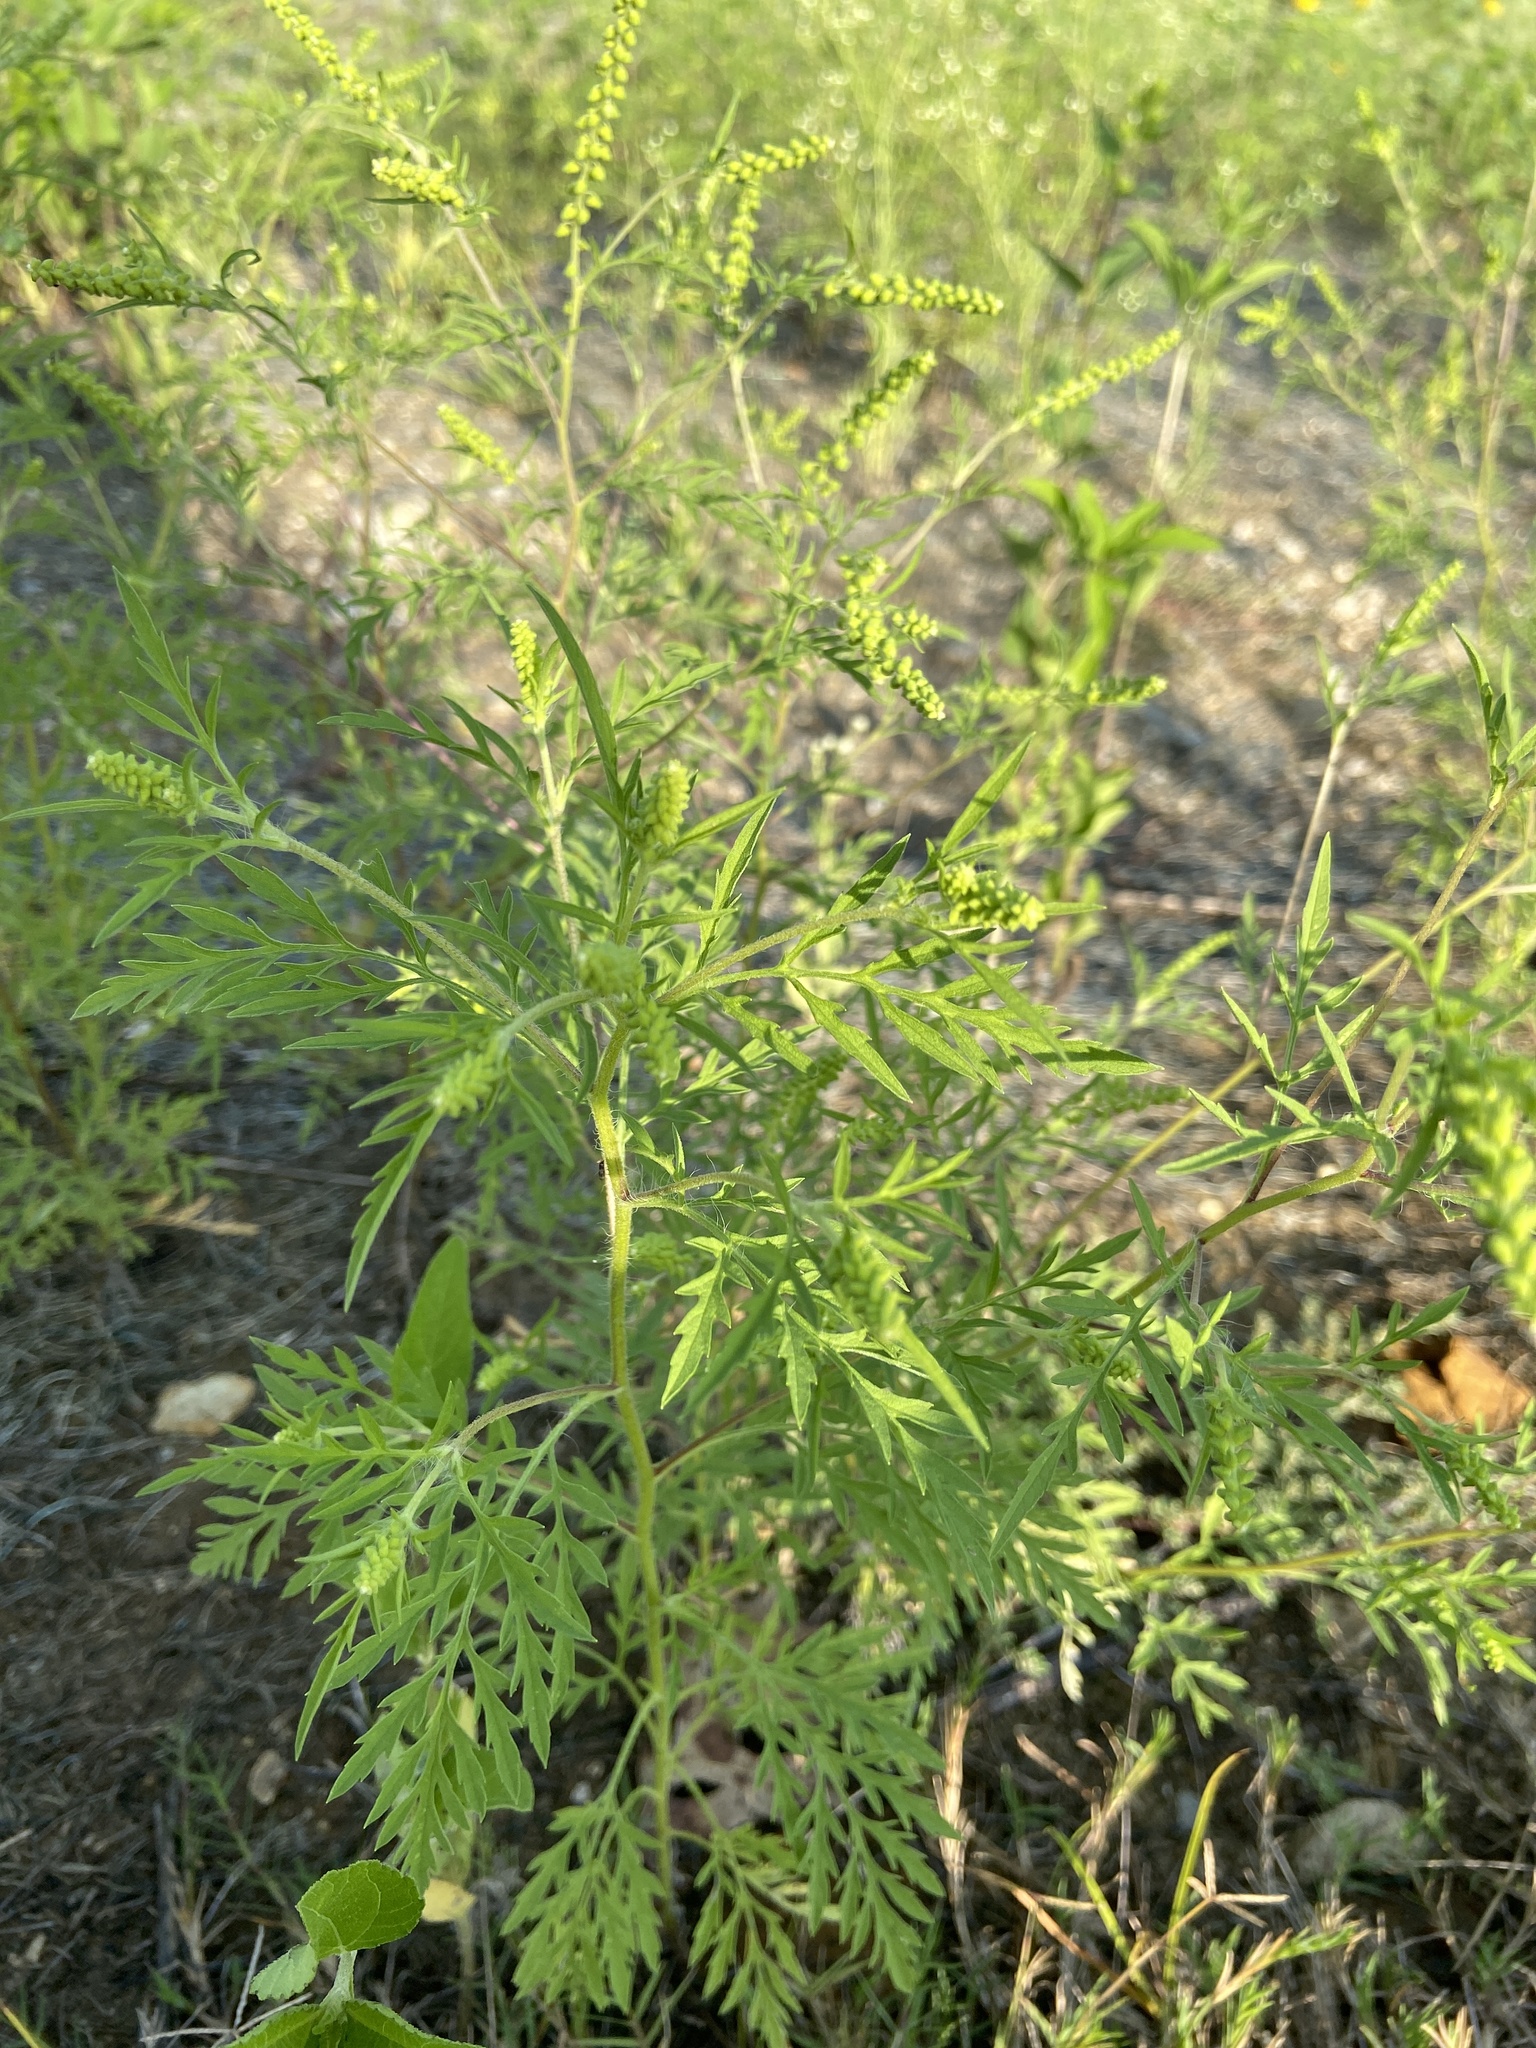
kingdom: Plantae
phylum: Tracheophyta
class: Magnoliopsida
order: Asterales
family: Asteraceae
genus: Ambrosia
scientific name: Ambrosia artemisiifolia
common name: Annual ragweed
